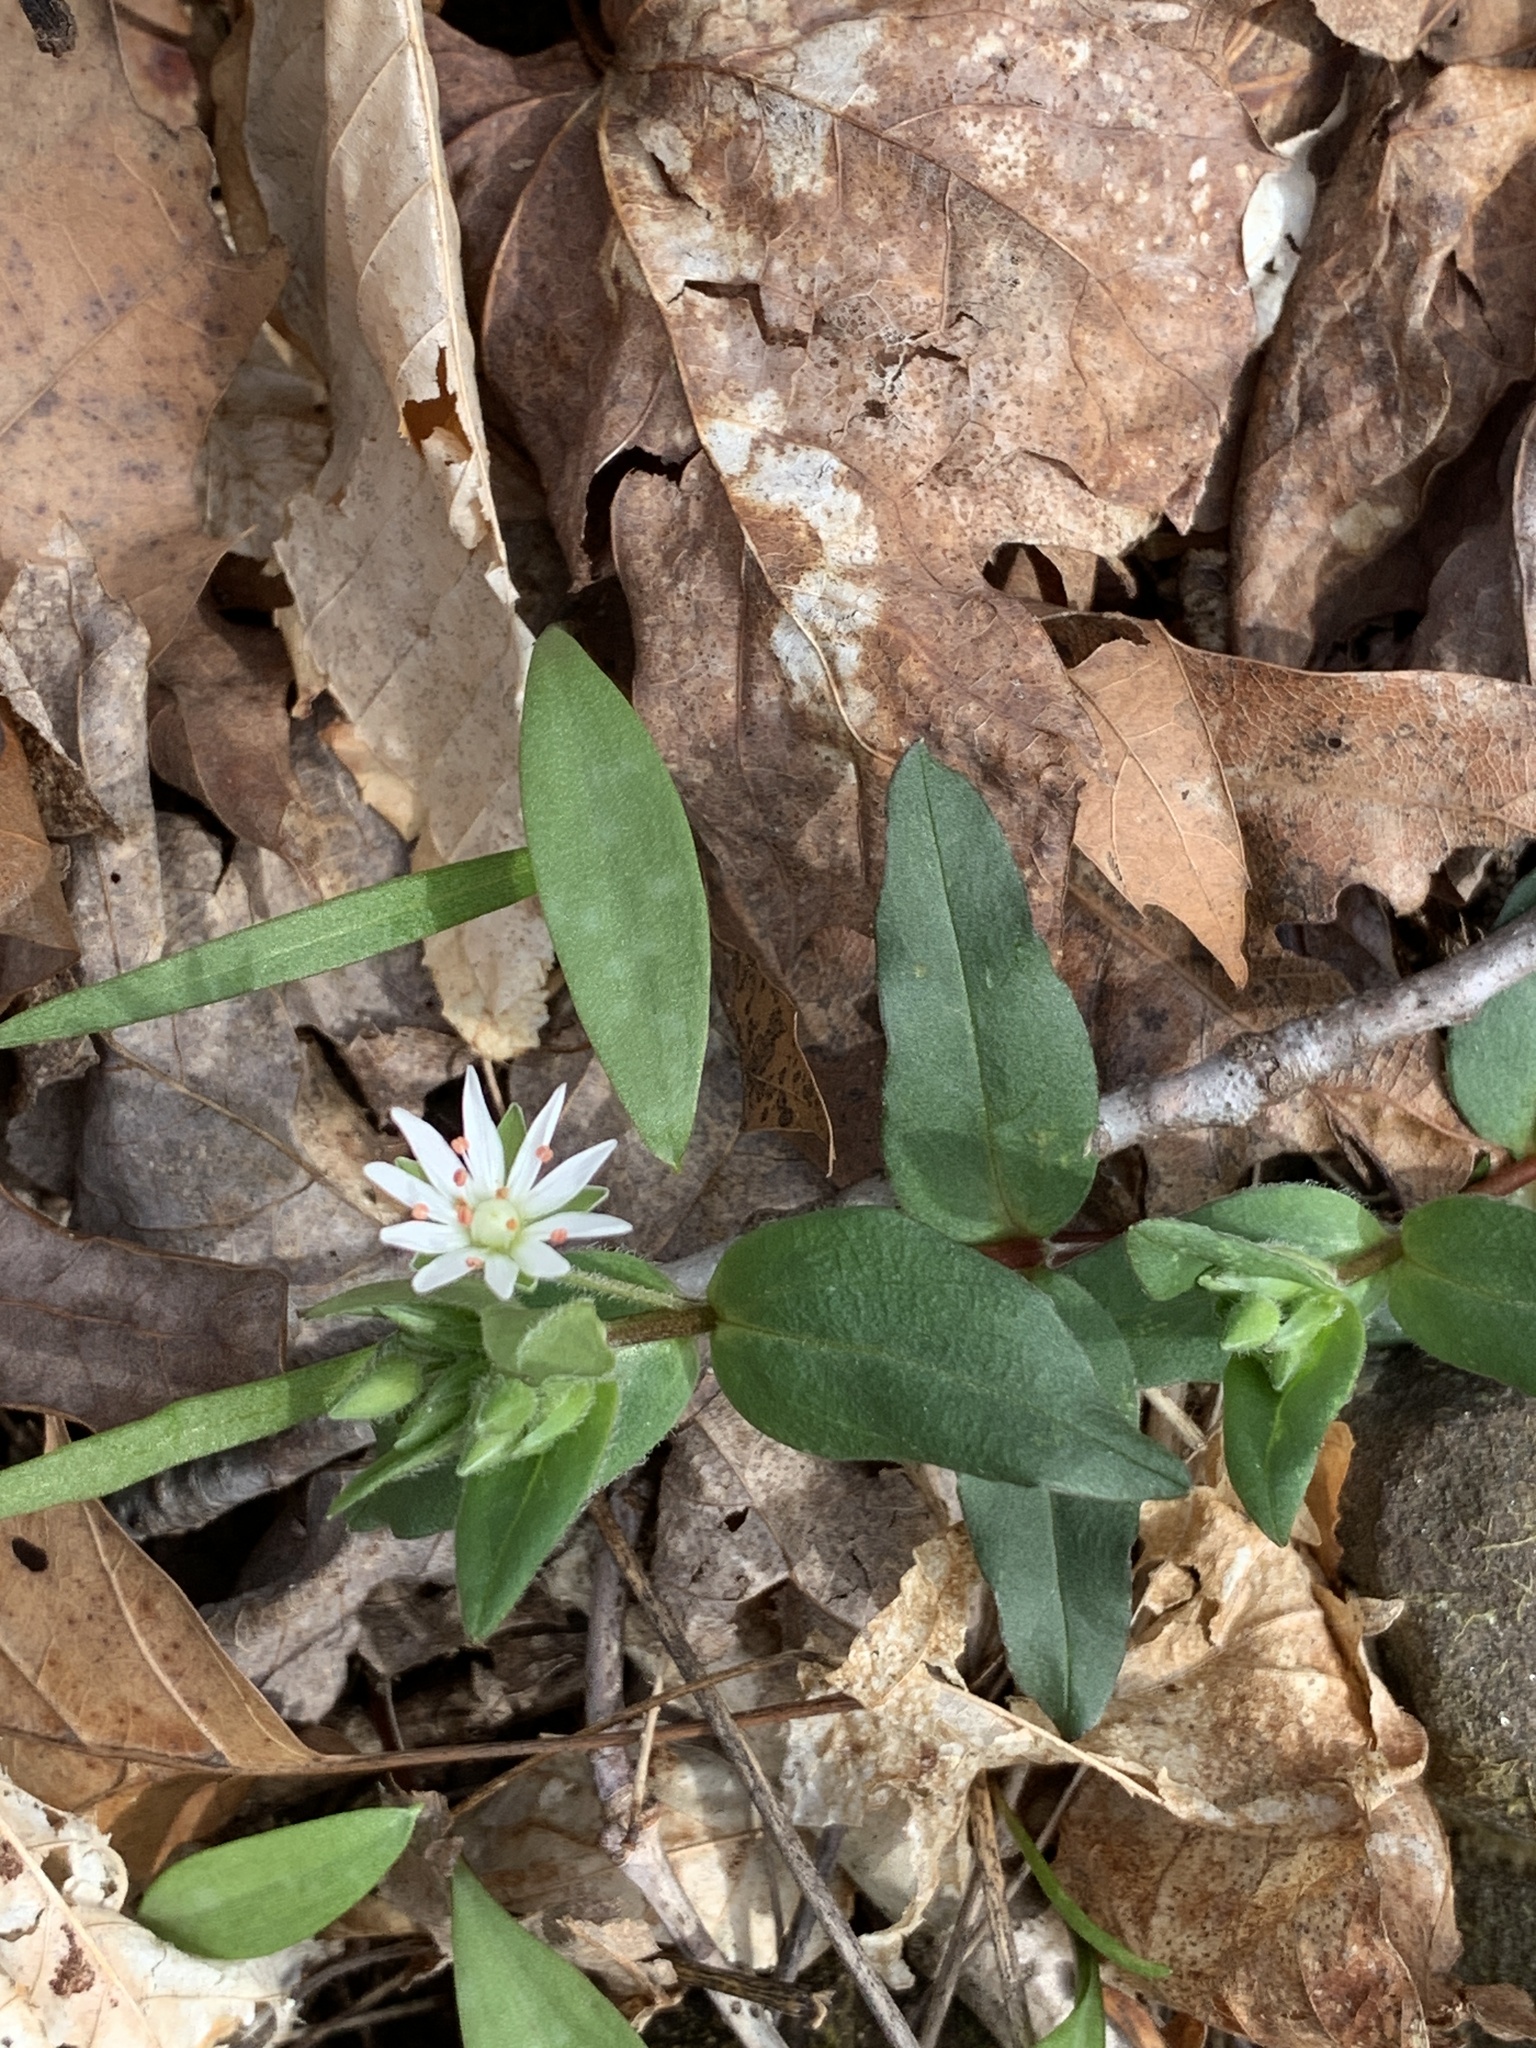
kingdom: Plantae
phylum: Tracheophyta
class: Magnoliopsida
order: Caryophyllales
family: Caryophyllaceae
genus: Stellaria
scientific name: Stellaria pubera
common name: Star chickweed
